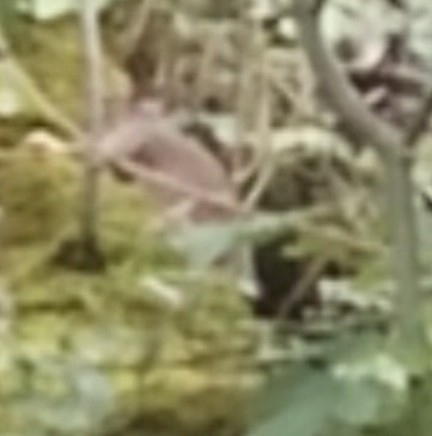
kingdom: Animalia
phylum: Chordata
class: Mammalia
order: Rodentia
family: Sciuridae
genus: Sciurus
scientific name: Sciurus carolinensis
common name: Eastern gray squirrel
